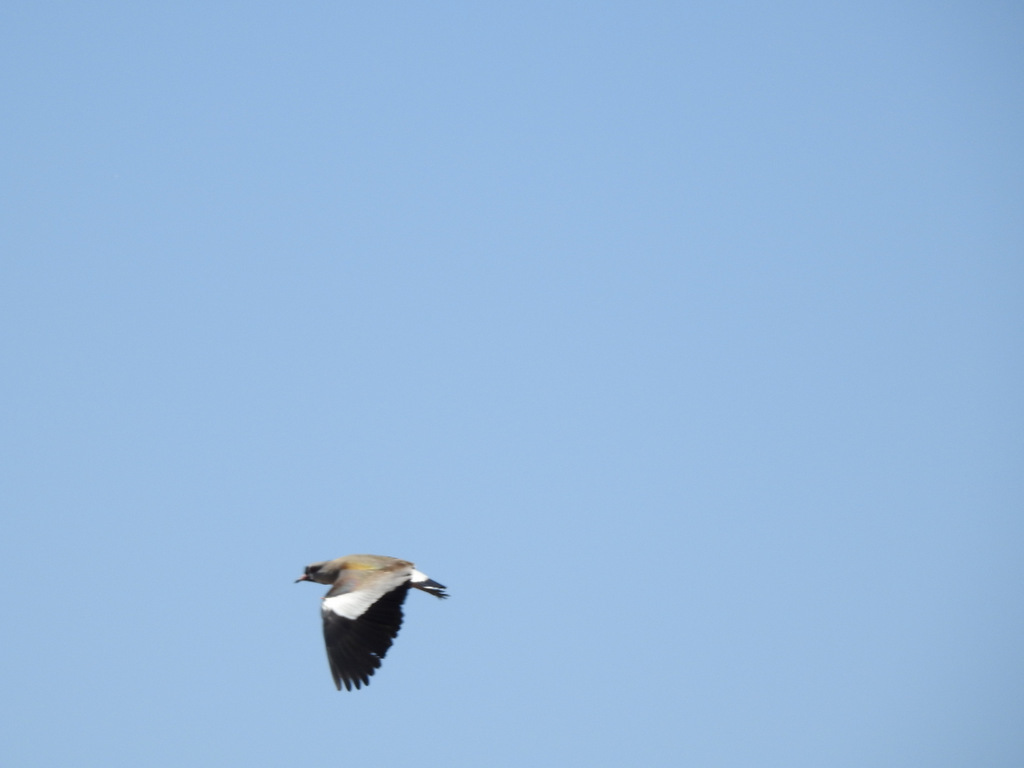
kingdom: Animalia
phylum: Chordata
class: Aves
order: Charadriiformes
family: Charadriidae
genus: Vanellus
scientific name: Vanellus chilensis
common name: Southern lapwing
